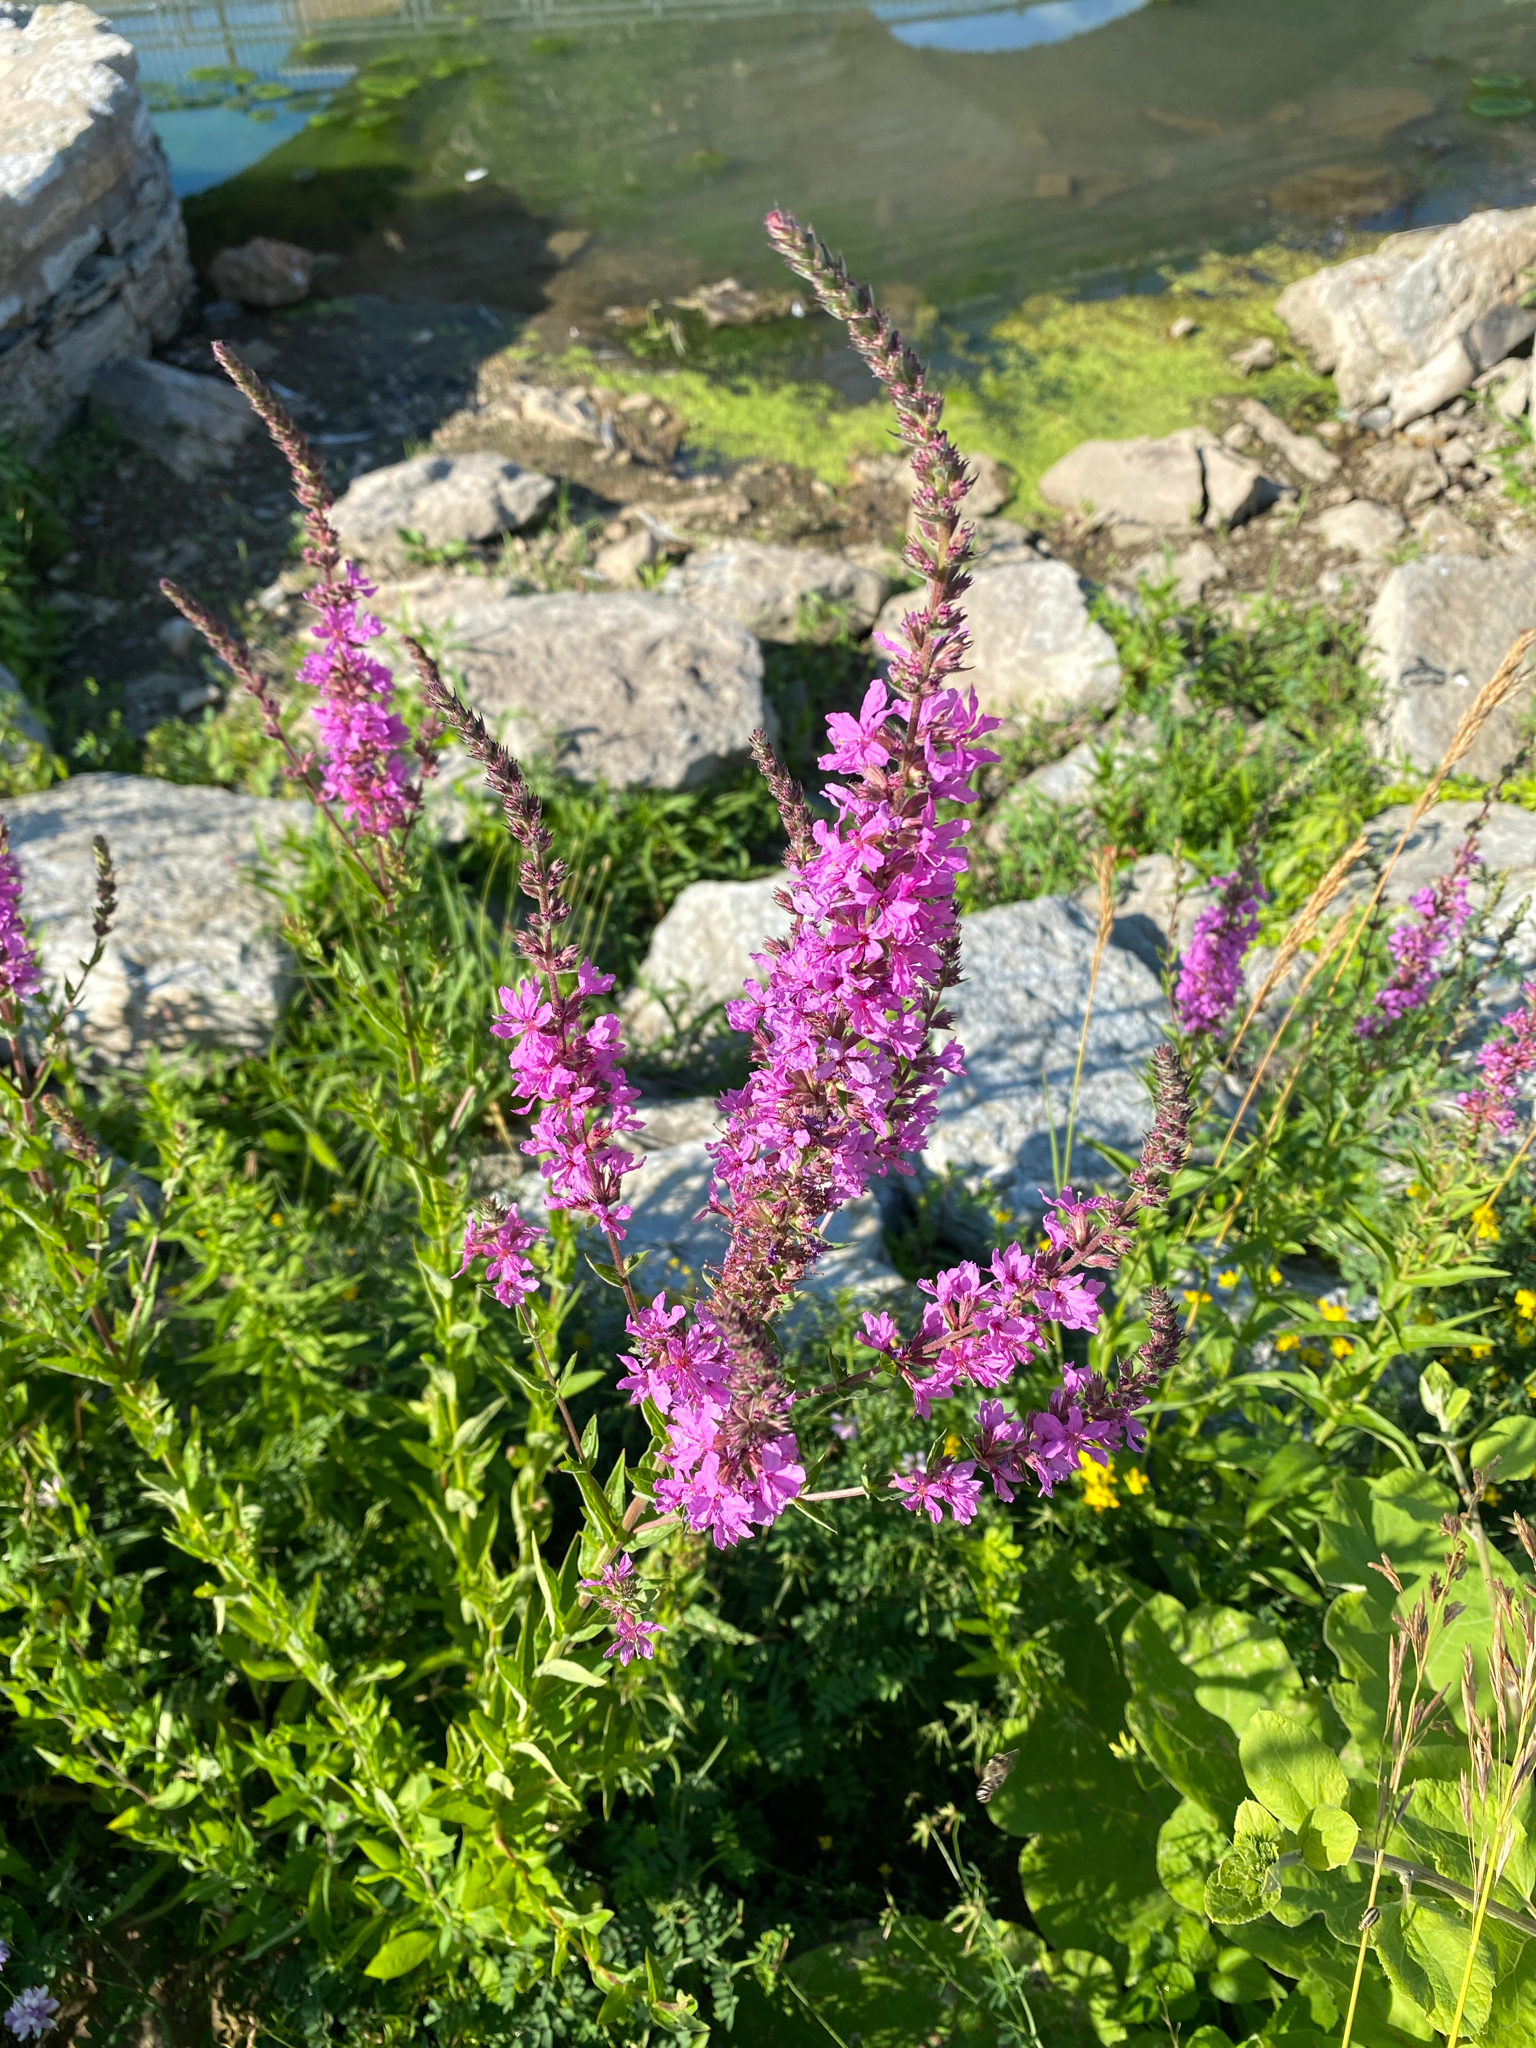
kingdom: Plantae
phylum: Tracheophyta
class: Magnoliopsida
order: Myrtales
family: Lythraceae
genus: Lythrum
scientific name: Lythrum salicaria
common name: Purple loosestrife
